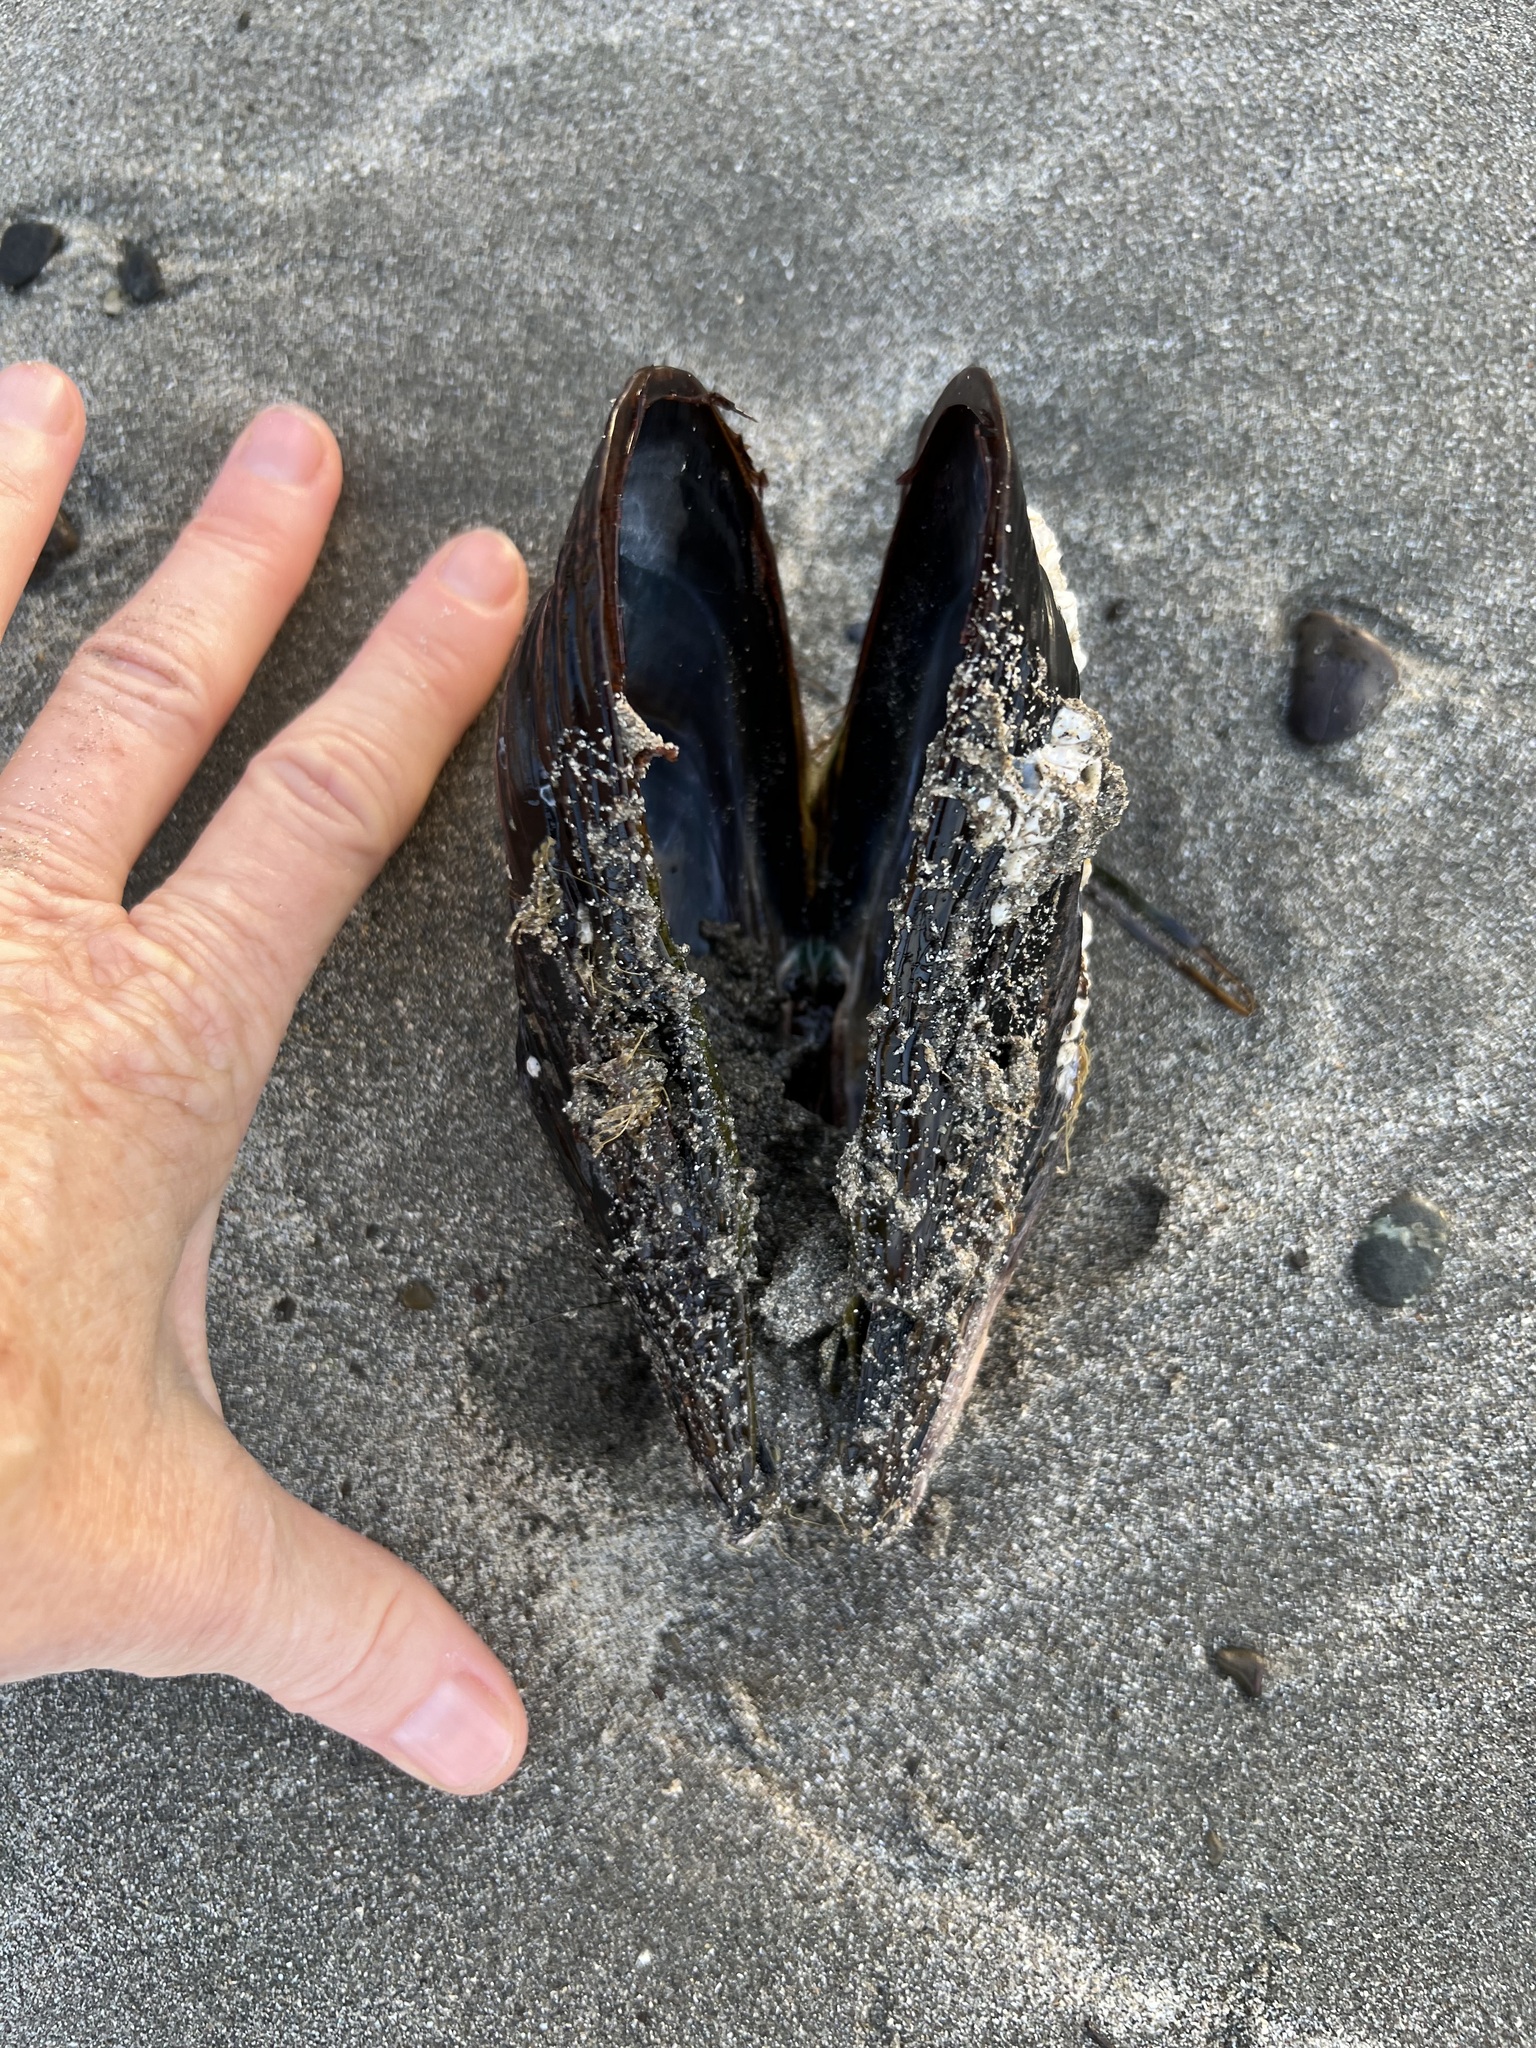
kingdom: Animalia
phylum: Mollusca
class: Bivalvia
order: Mytilida
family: Mytilidae
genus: Mytilus
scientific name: Mytilus californianus
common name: California mussel
